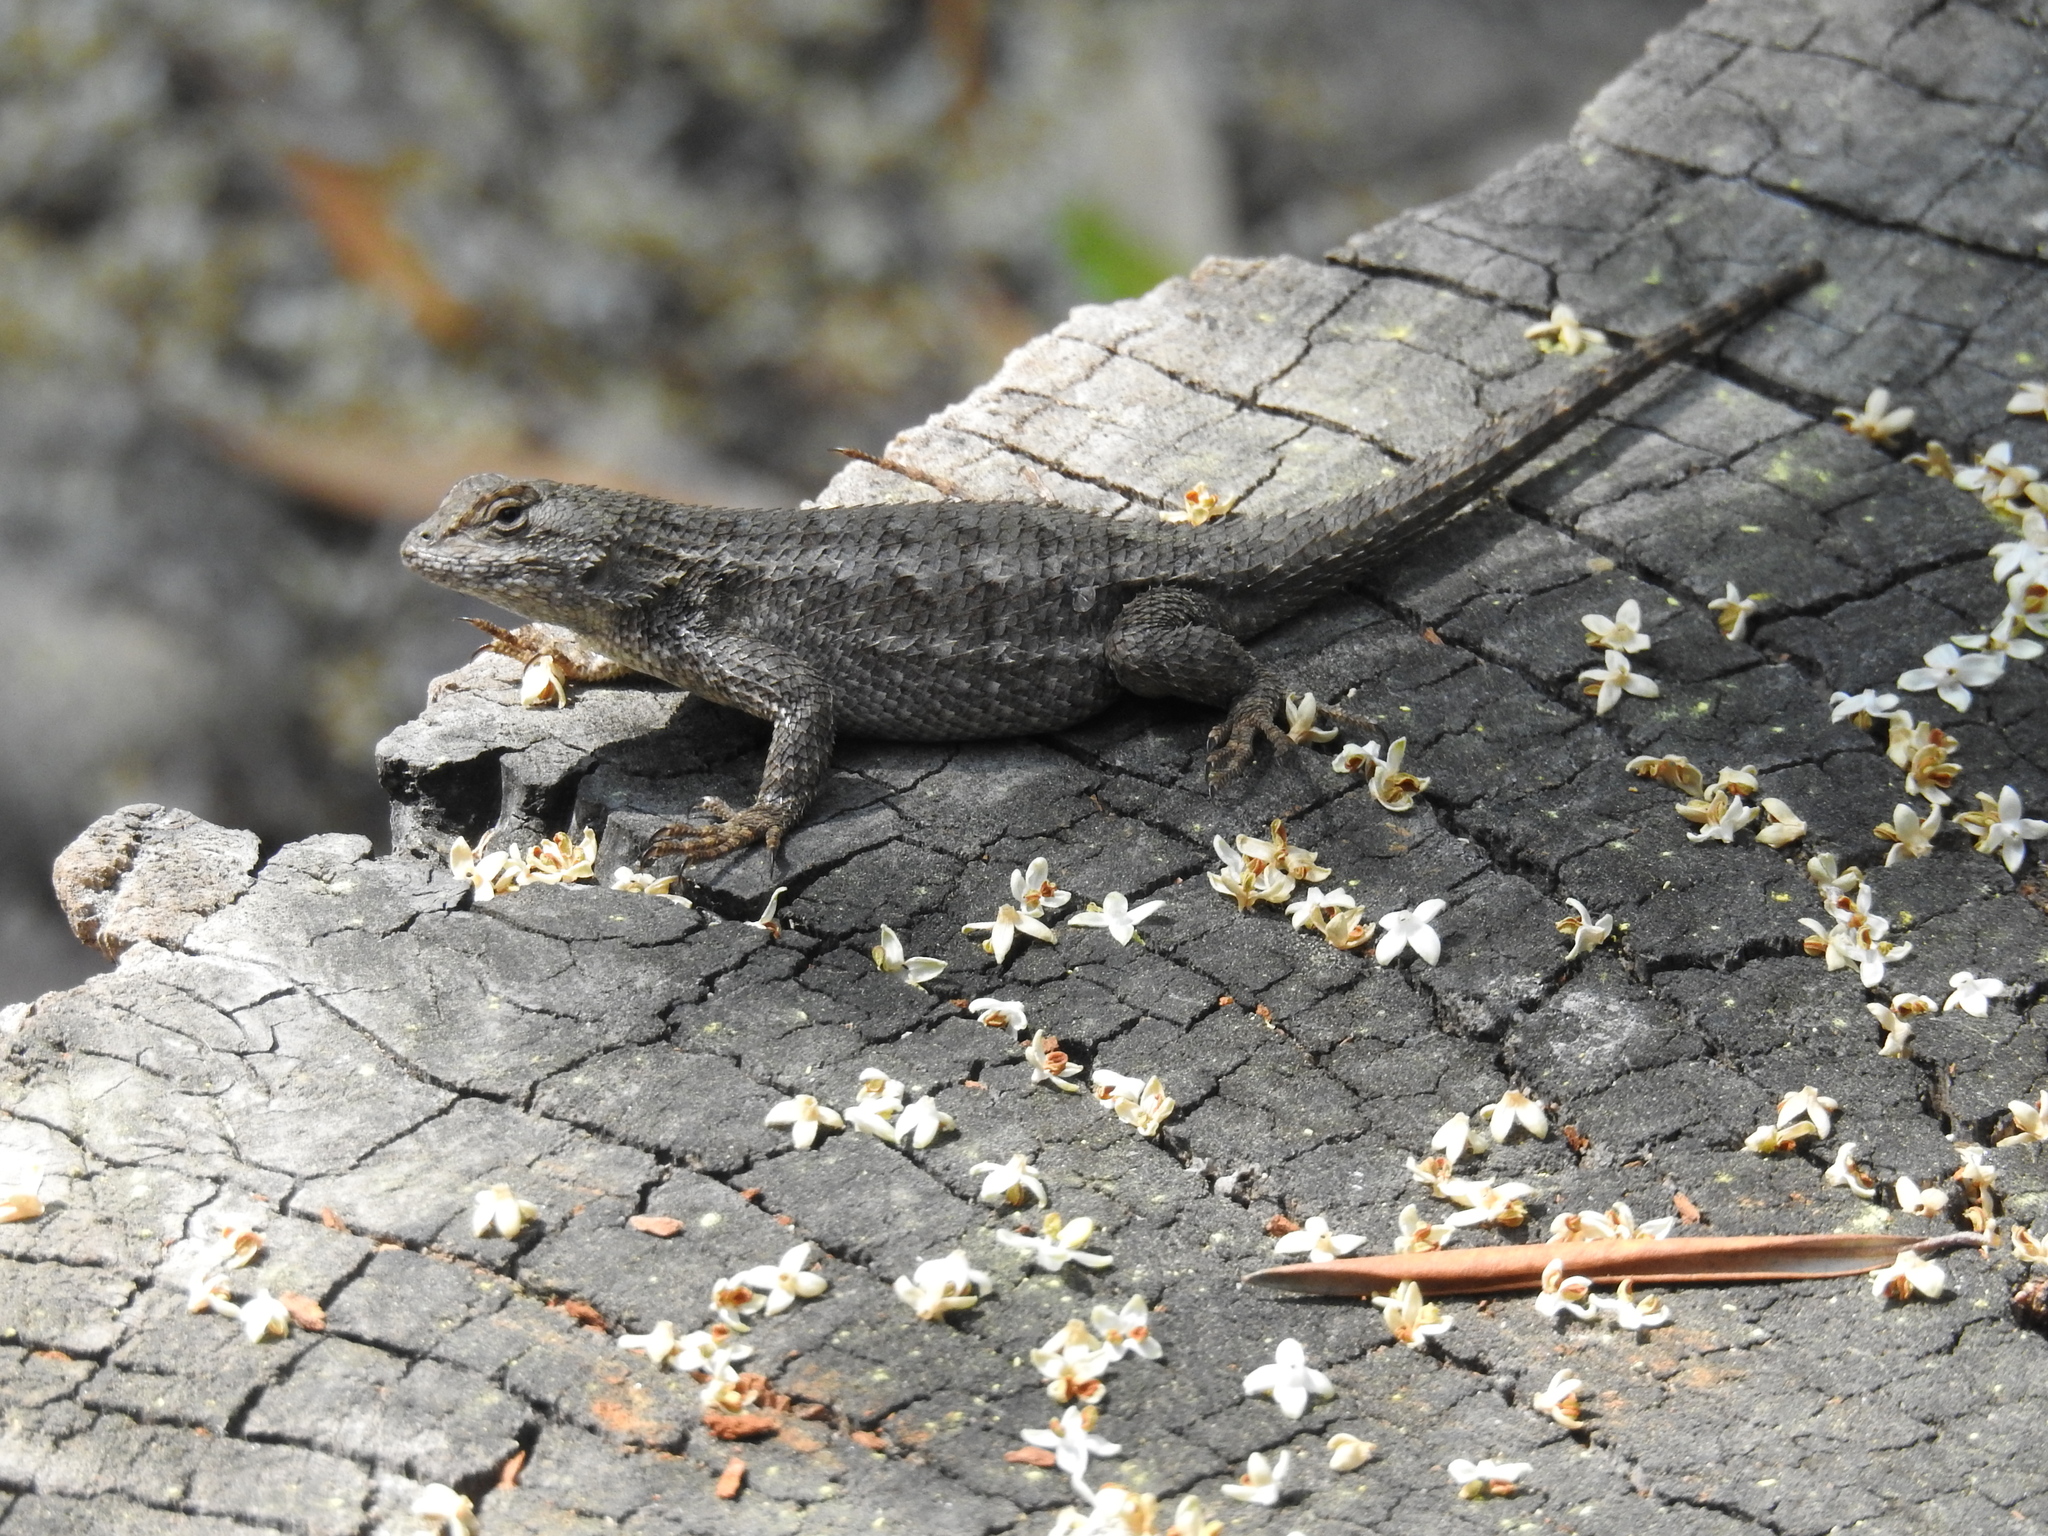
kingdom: Animalia
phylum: Chordata
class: Squamata
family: Phrynosomatidae
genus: Sceloporus
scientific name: Sceloporus occidentalis
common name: Western fence lizard
